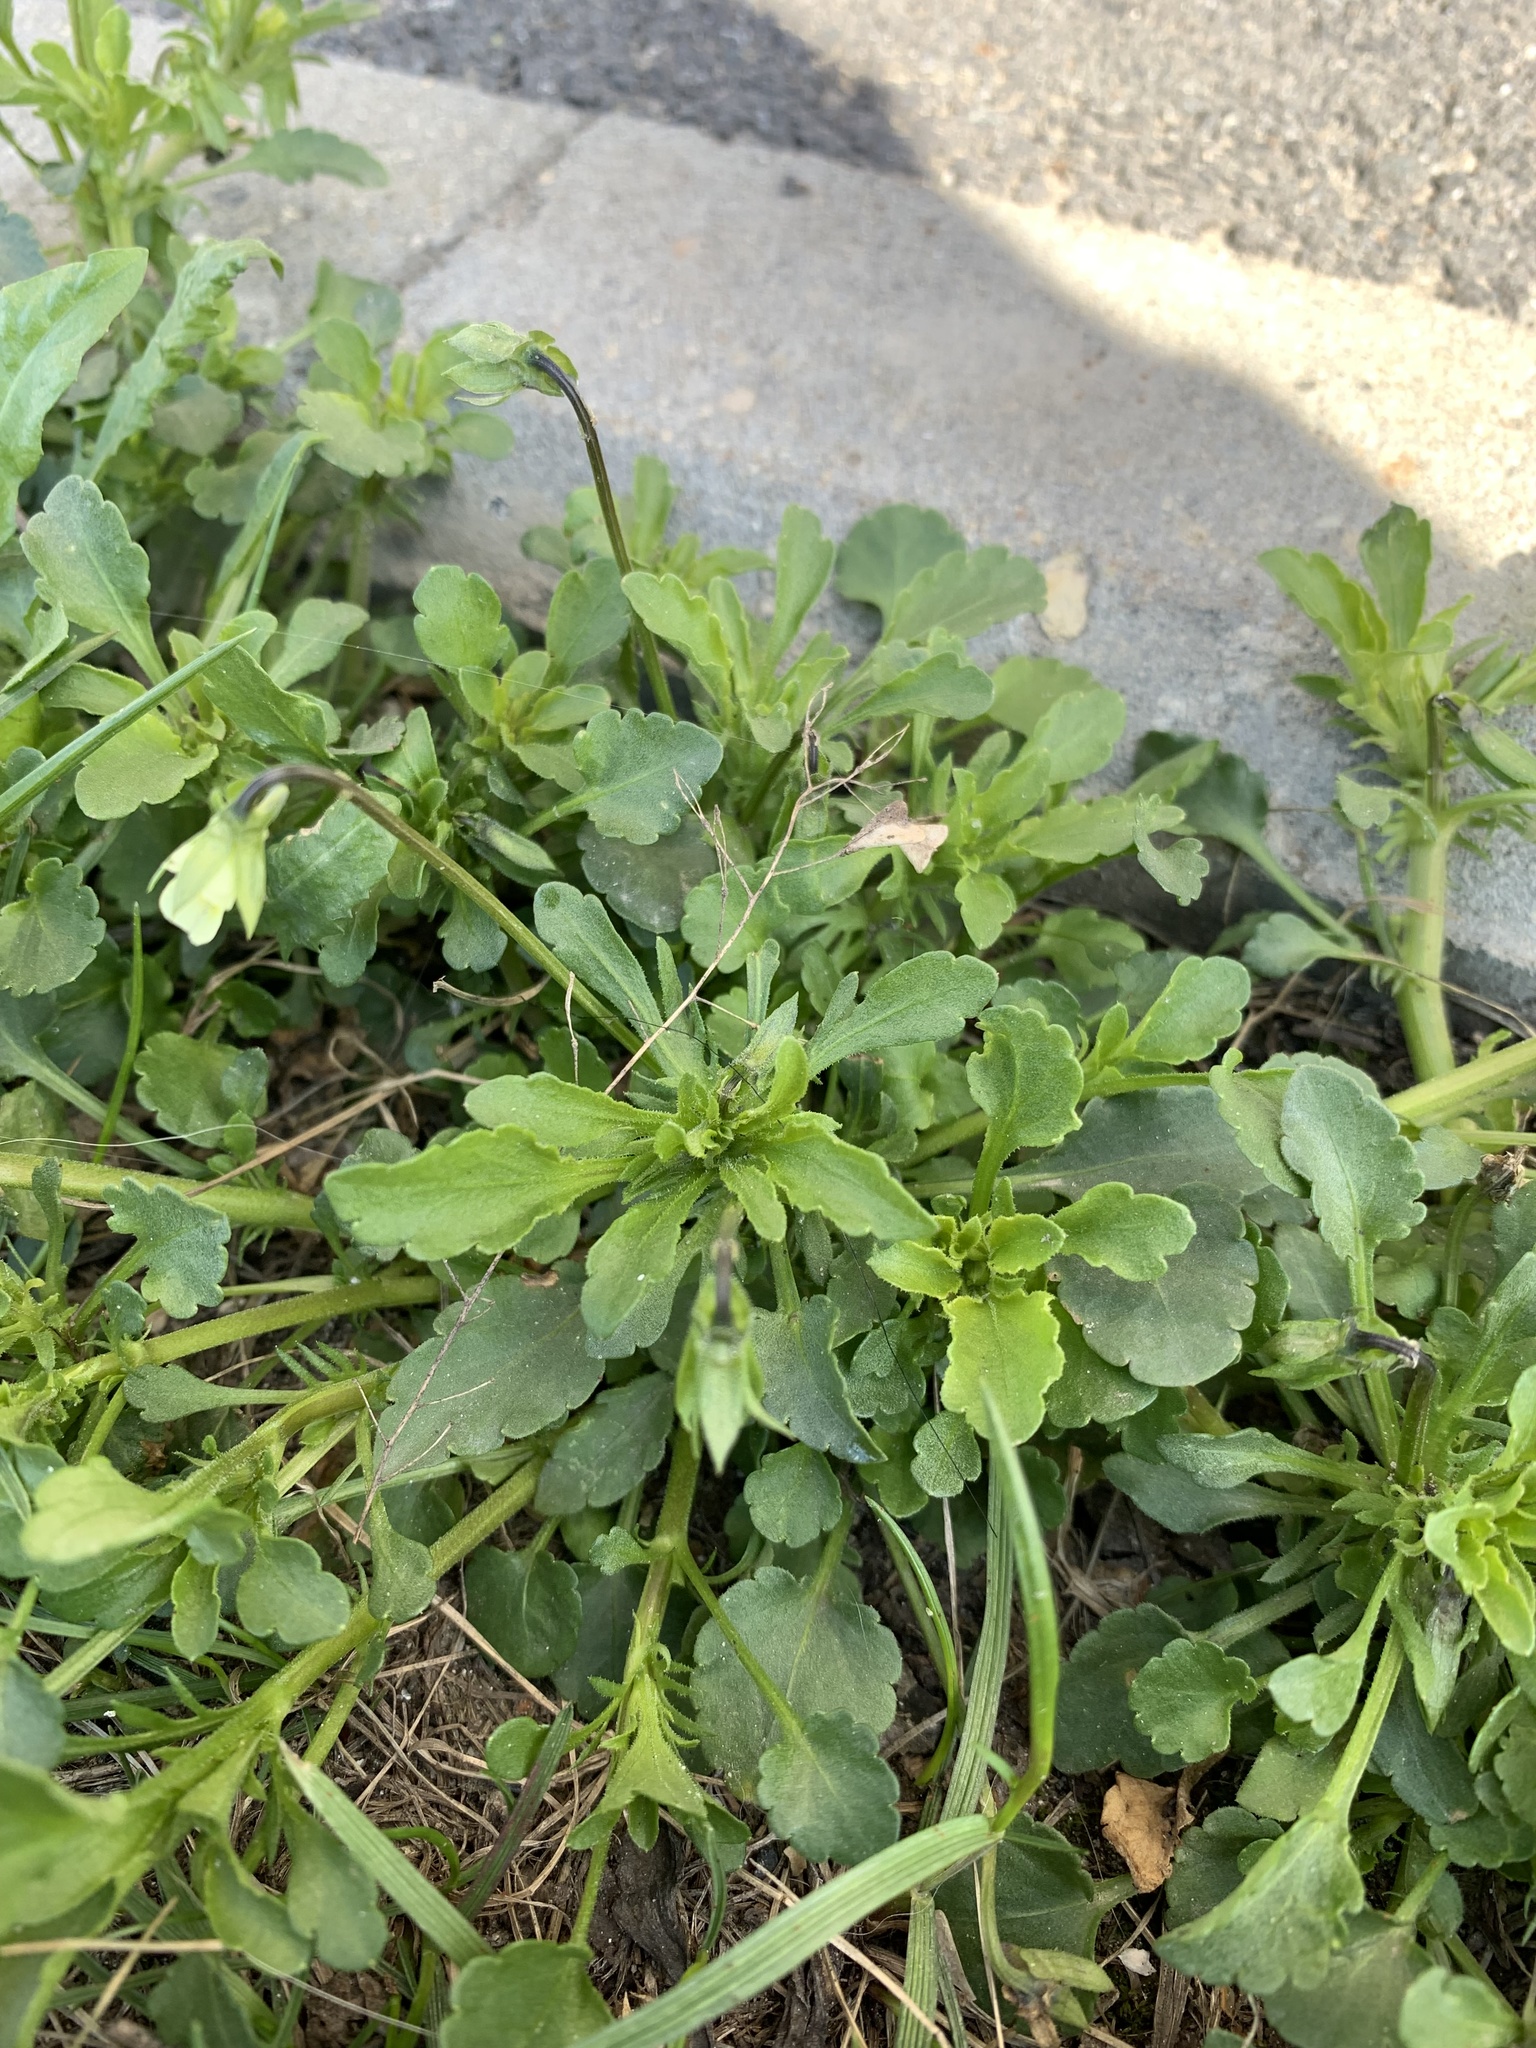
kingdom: Plantae
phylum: Tracheophyta
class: Magnoliopsida
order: Malpighiales
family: Violaceae
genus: Viola
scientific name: Viola arvensis
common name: Field pansy
